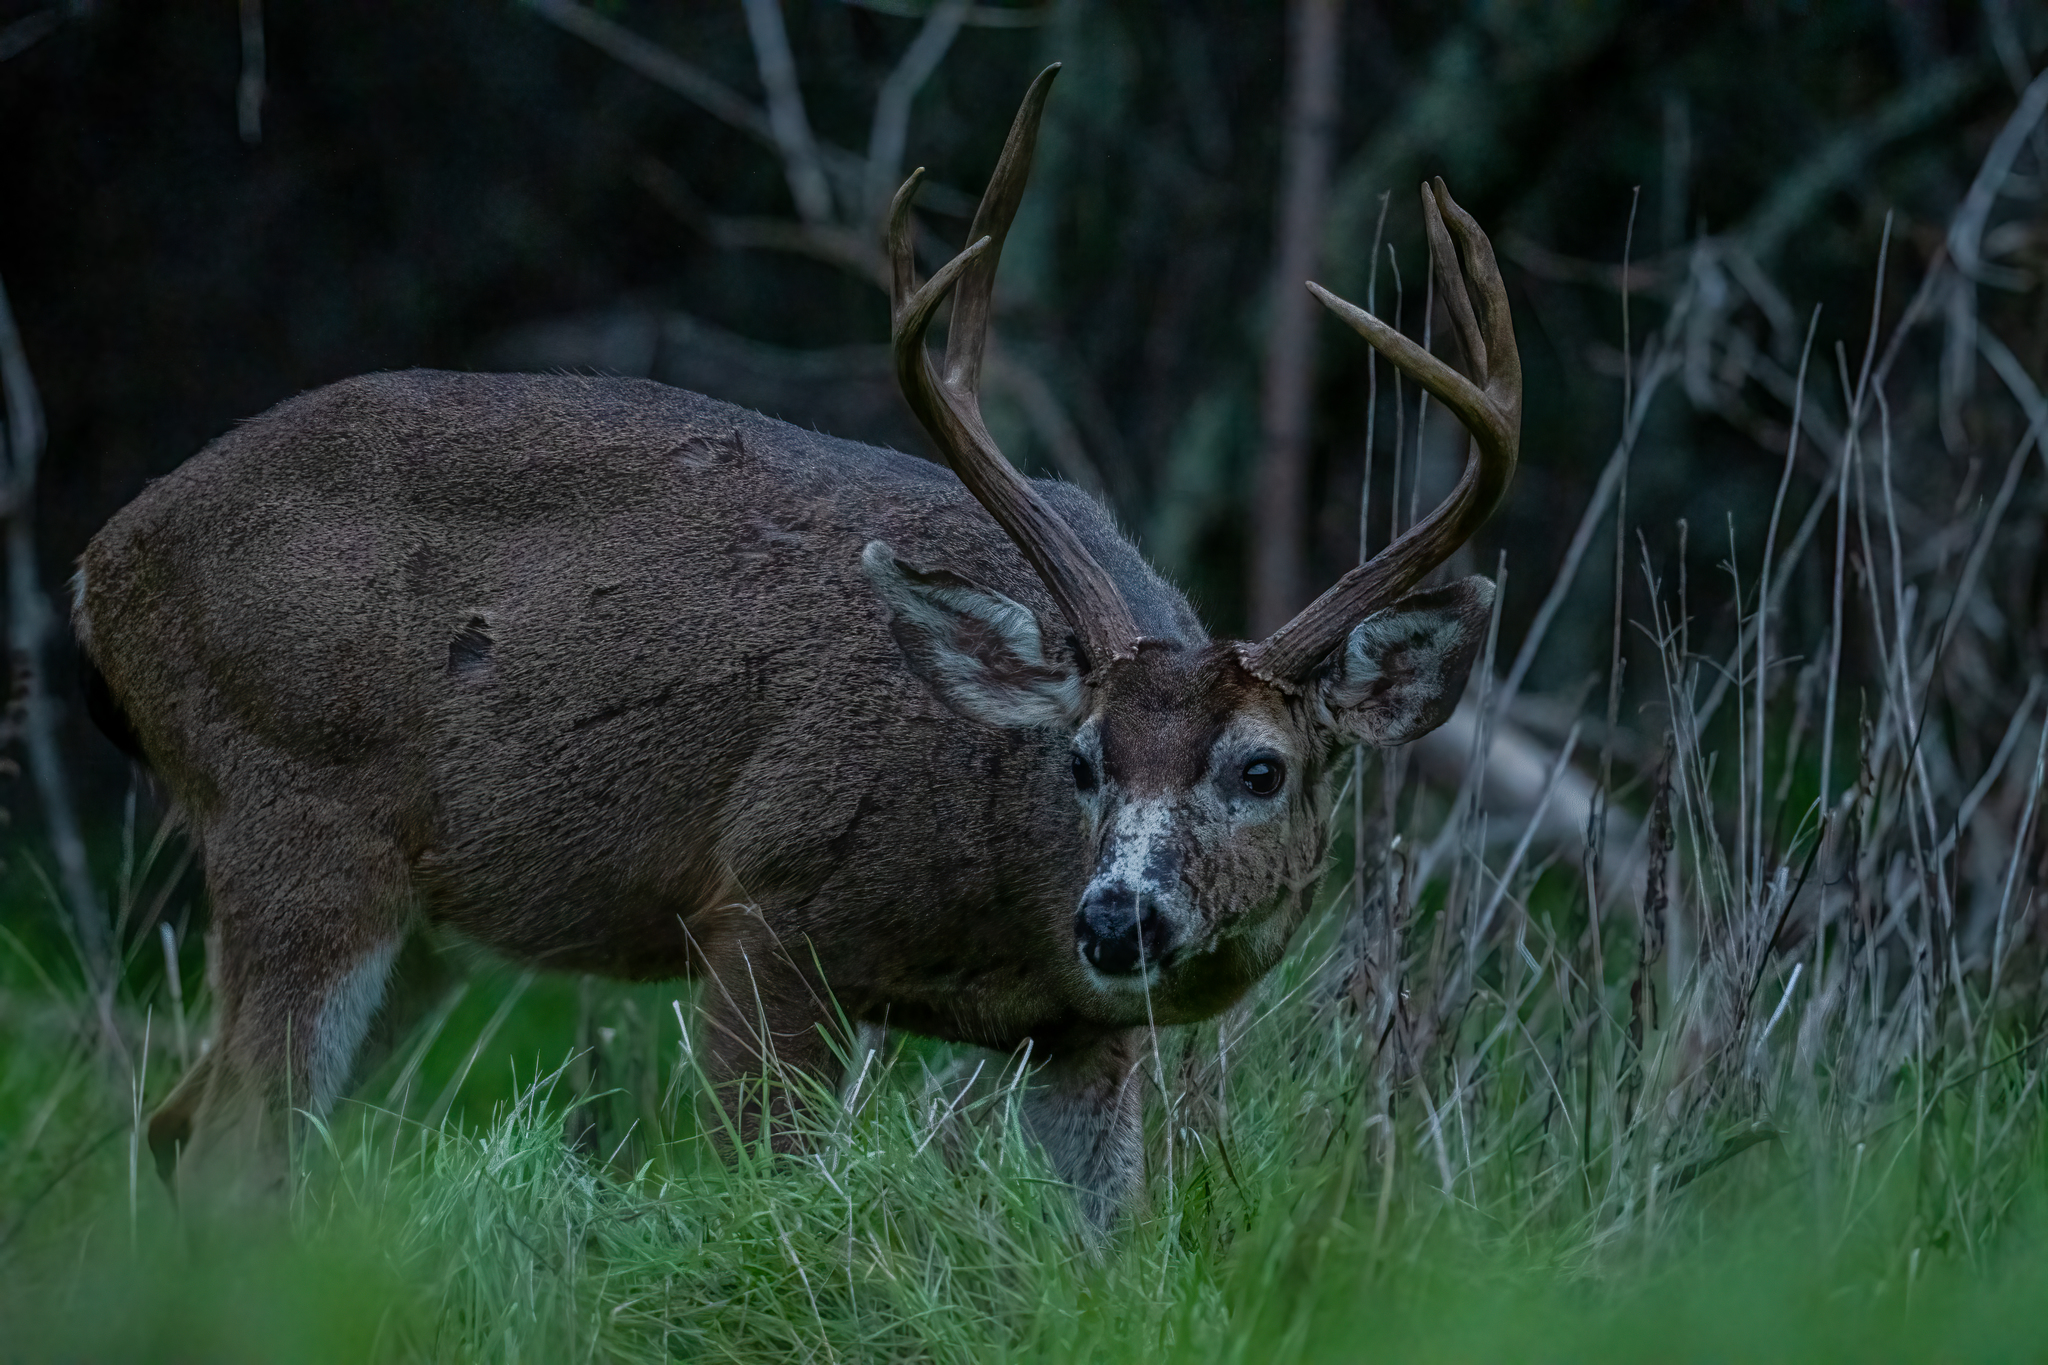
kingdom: Animalia
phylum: Chordata
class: Mammalia
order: Artiodactyla
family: Cervidae
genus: Odocoileus
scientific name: Odocoileus hemionus
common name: Mule deer
